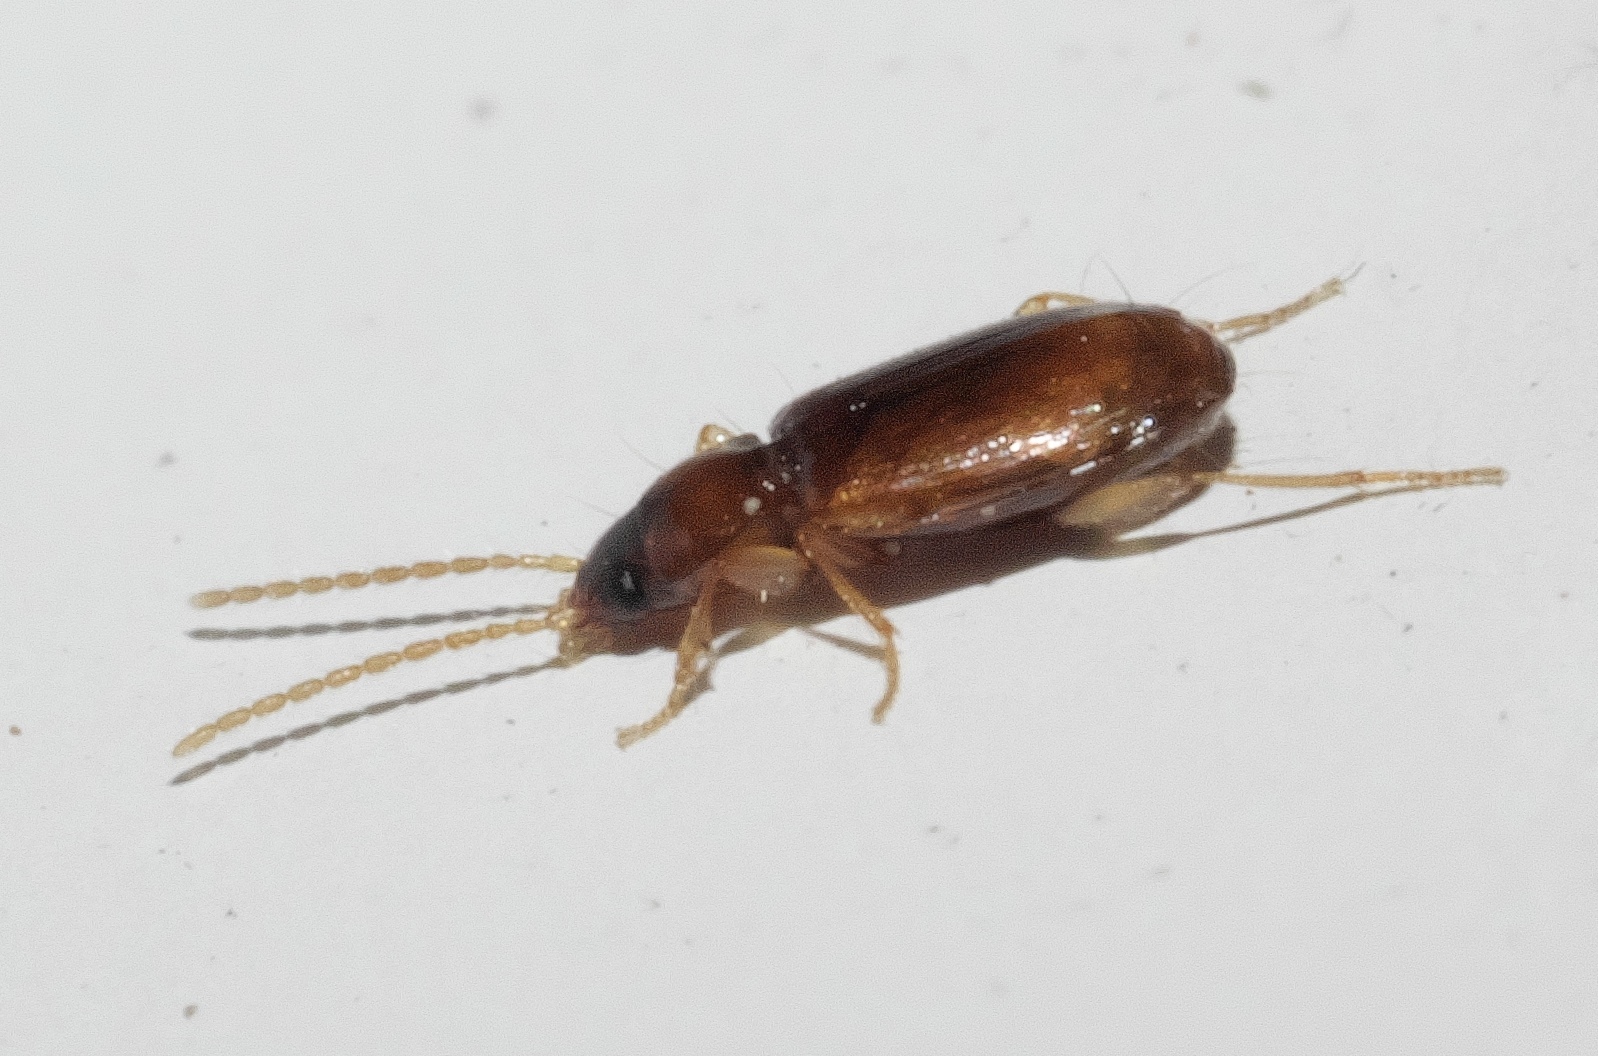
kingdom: Animalia
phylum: Arthropoda
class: Insecta
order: Coleoptera
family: Carabidae
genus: Micratopus
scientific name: Micratopus aenescens
